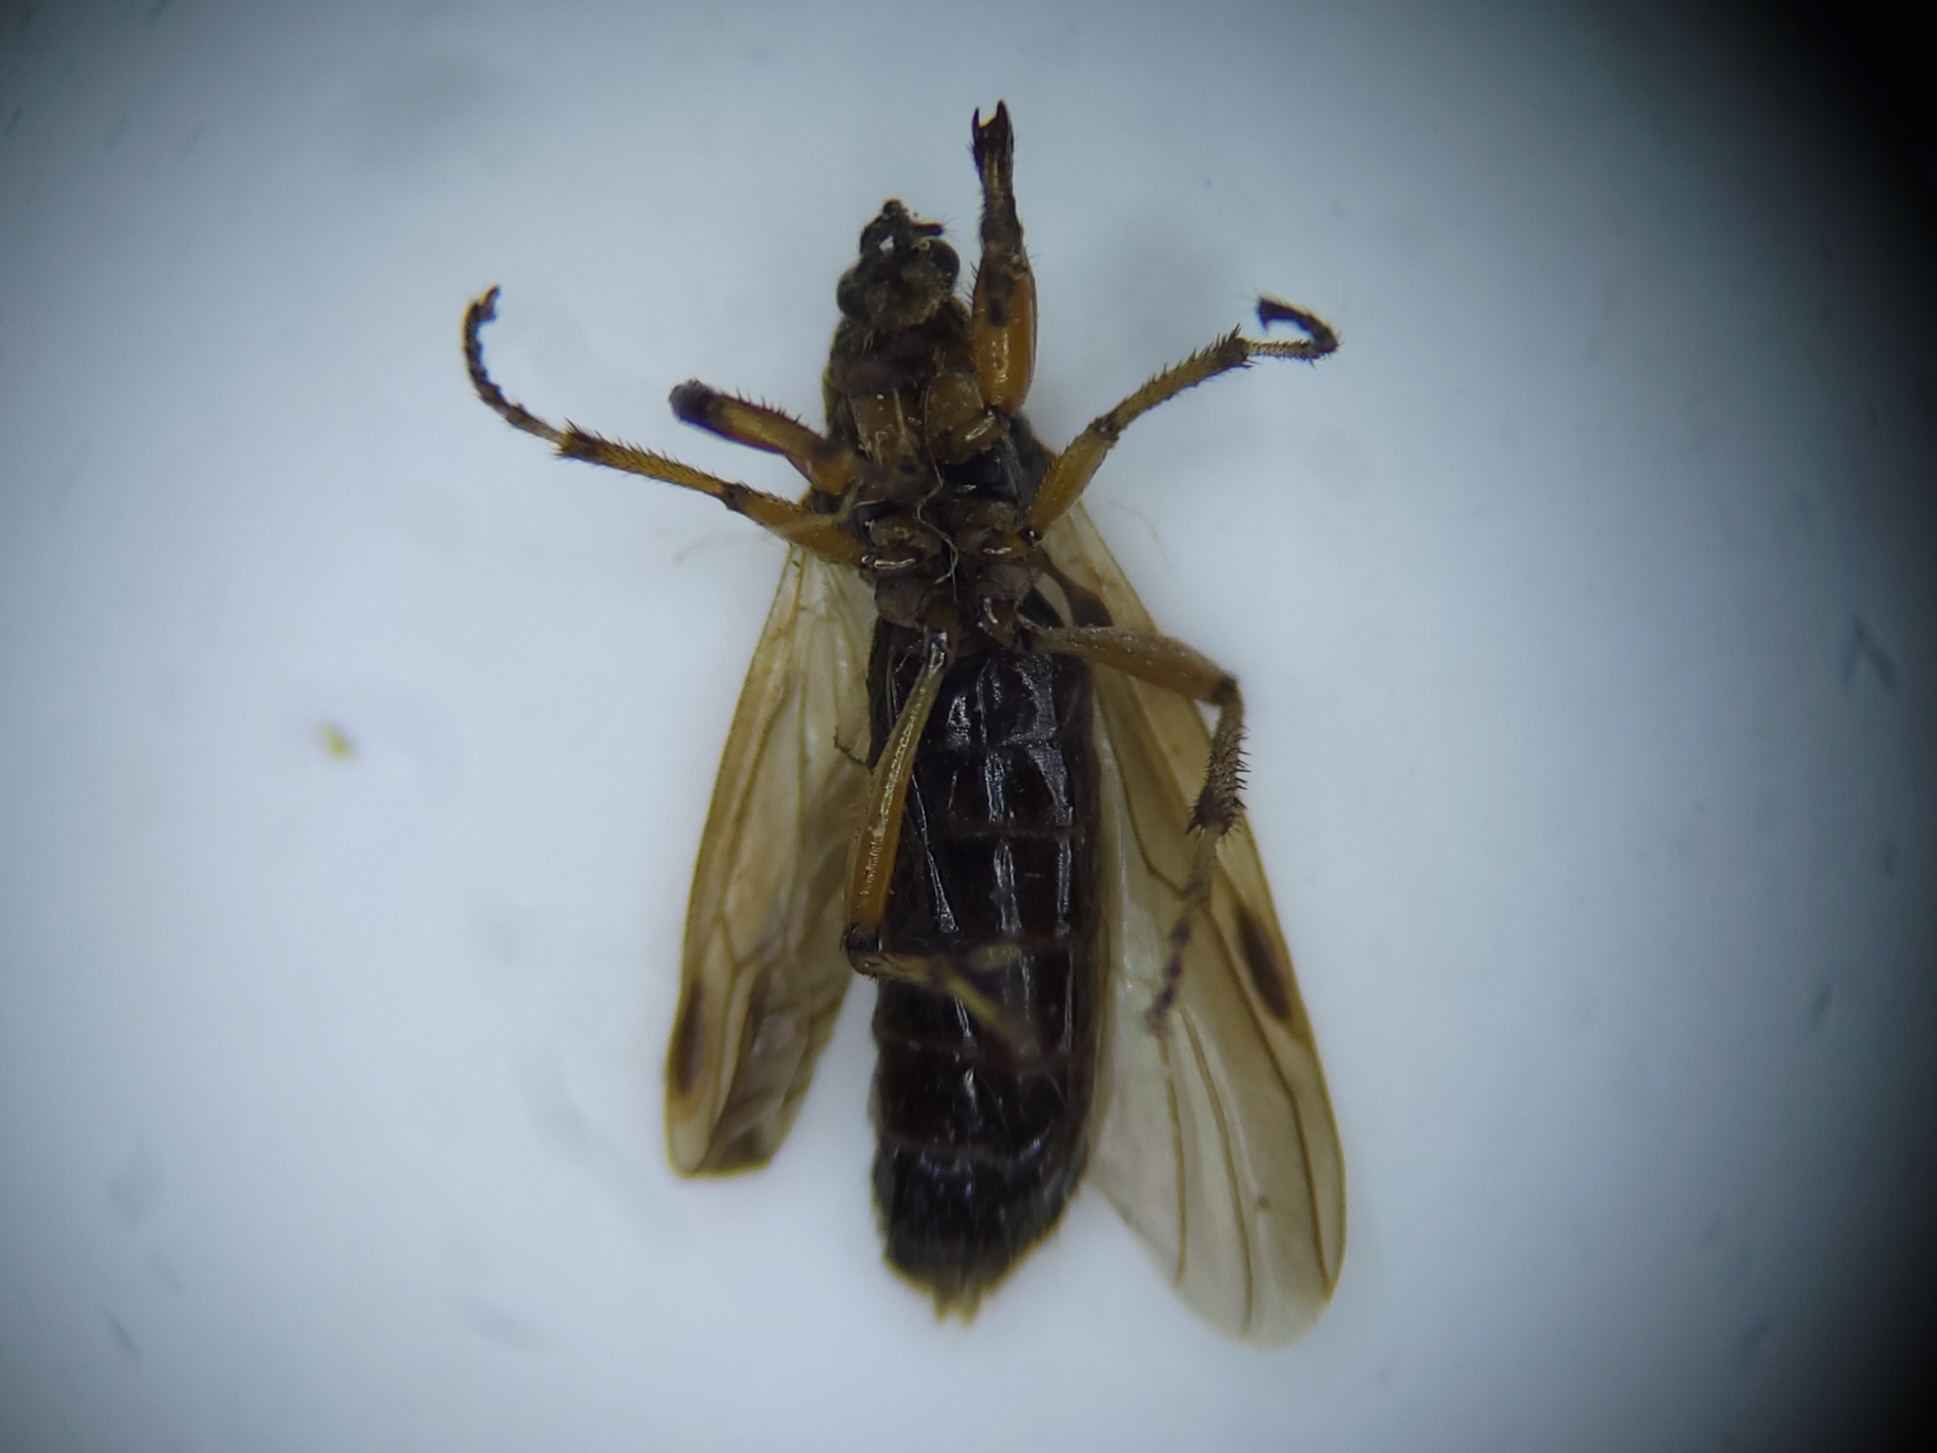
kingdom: Animalia
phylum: Arthropoda
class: Insecta
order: Diptera
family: Bibionidae
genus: Bibio
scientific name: Bibio articulatus
